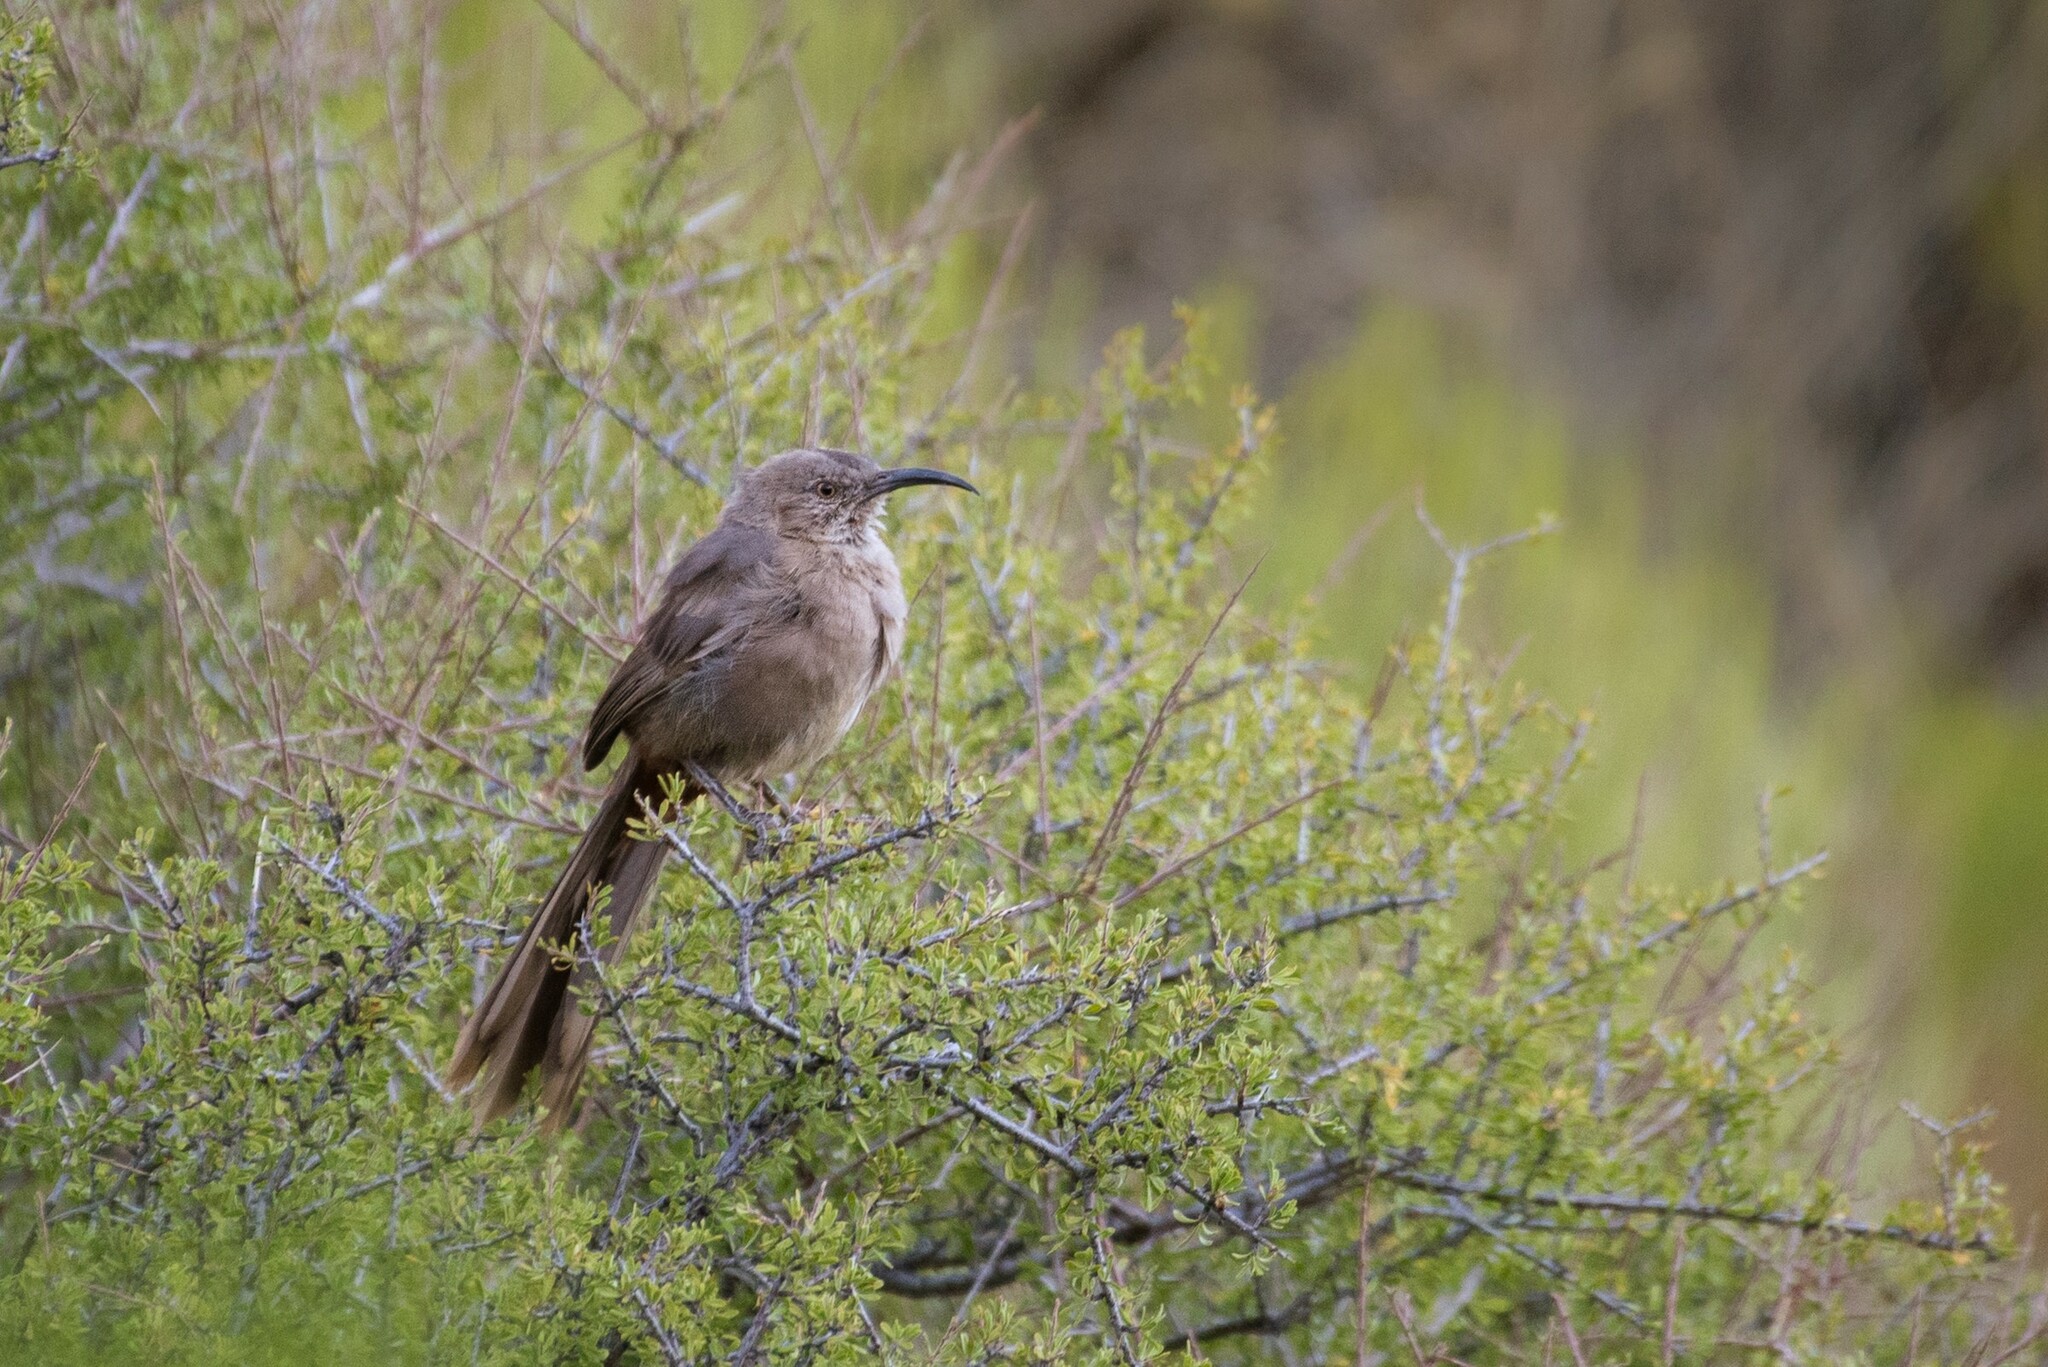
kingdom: Animalia
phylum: Chordata
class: Aves
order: Passeriformes
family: Mimidae
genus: Toxostoma
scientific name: Toxostoma crissale
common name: Crissal thrasher
